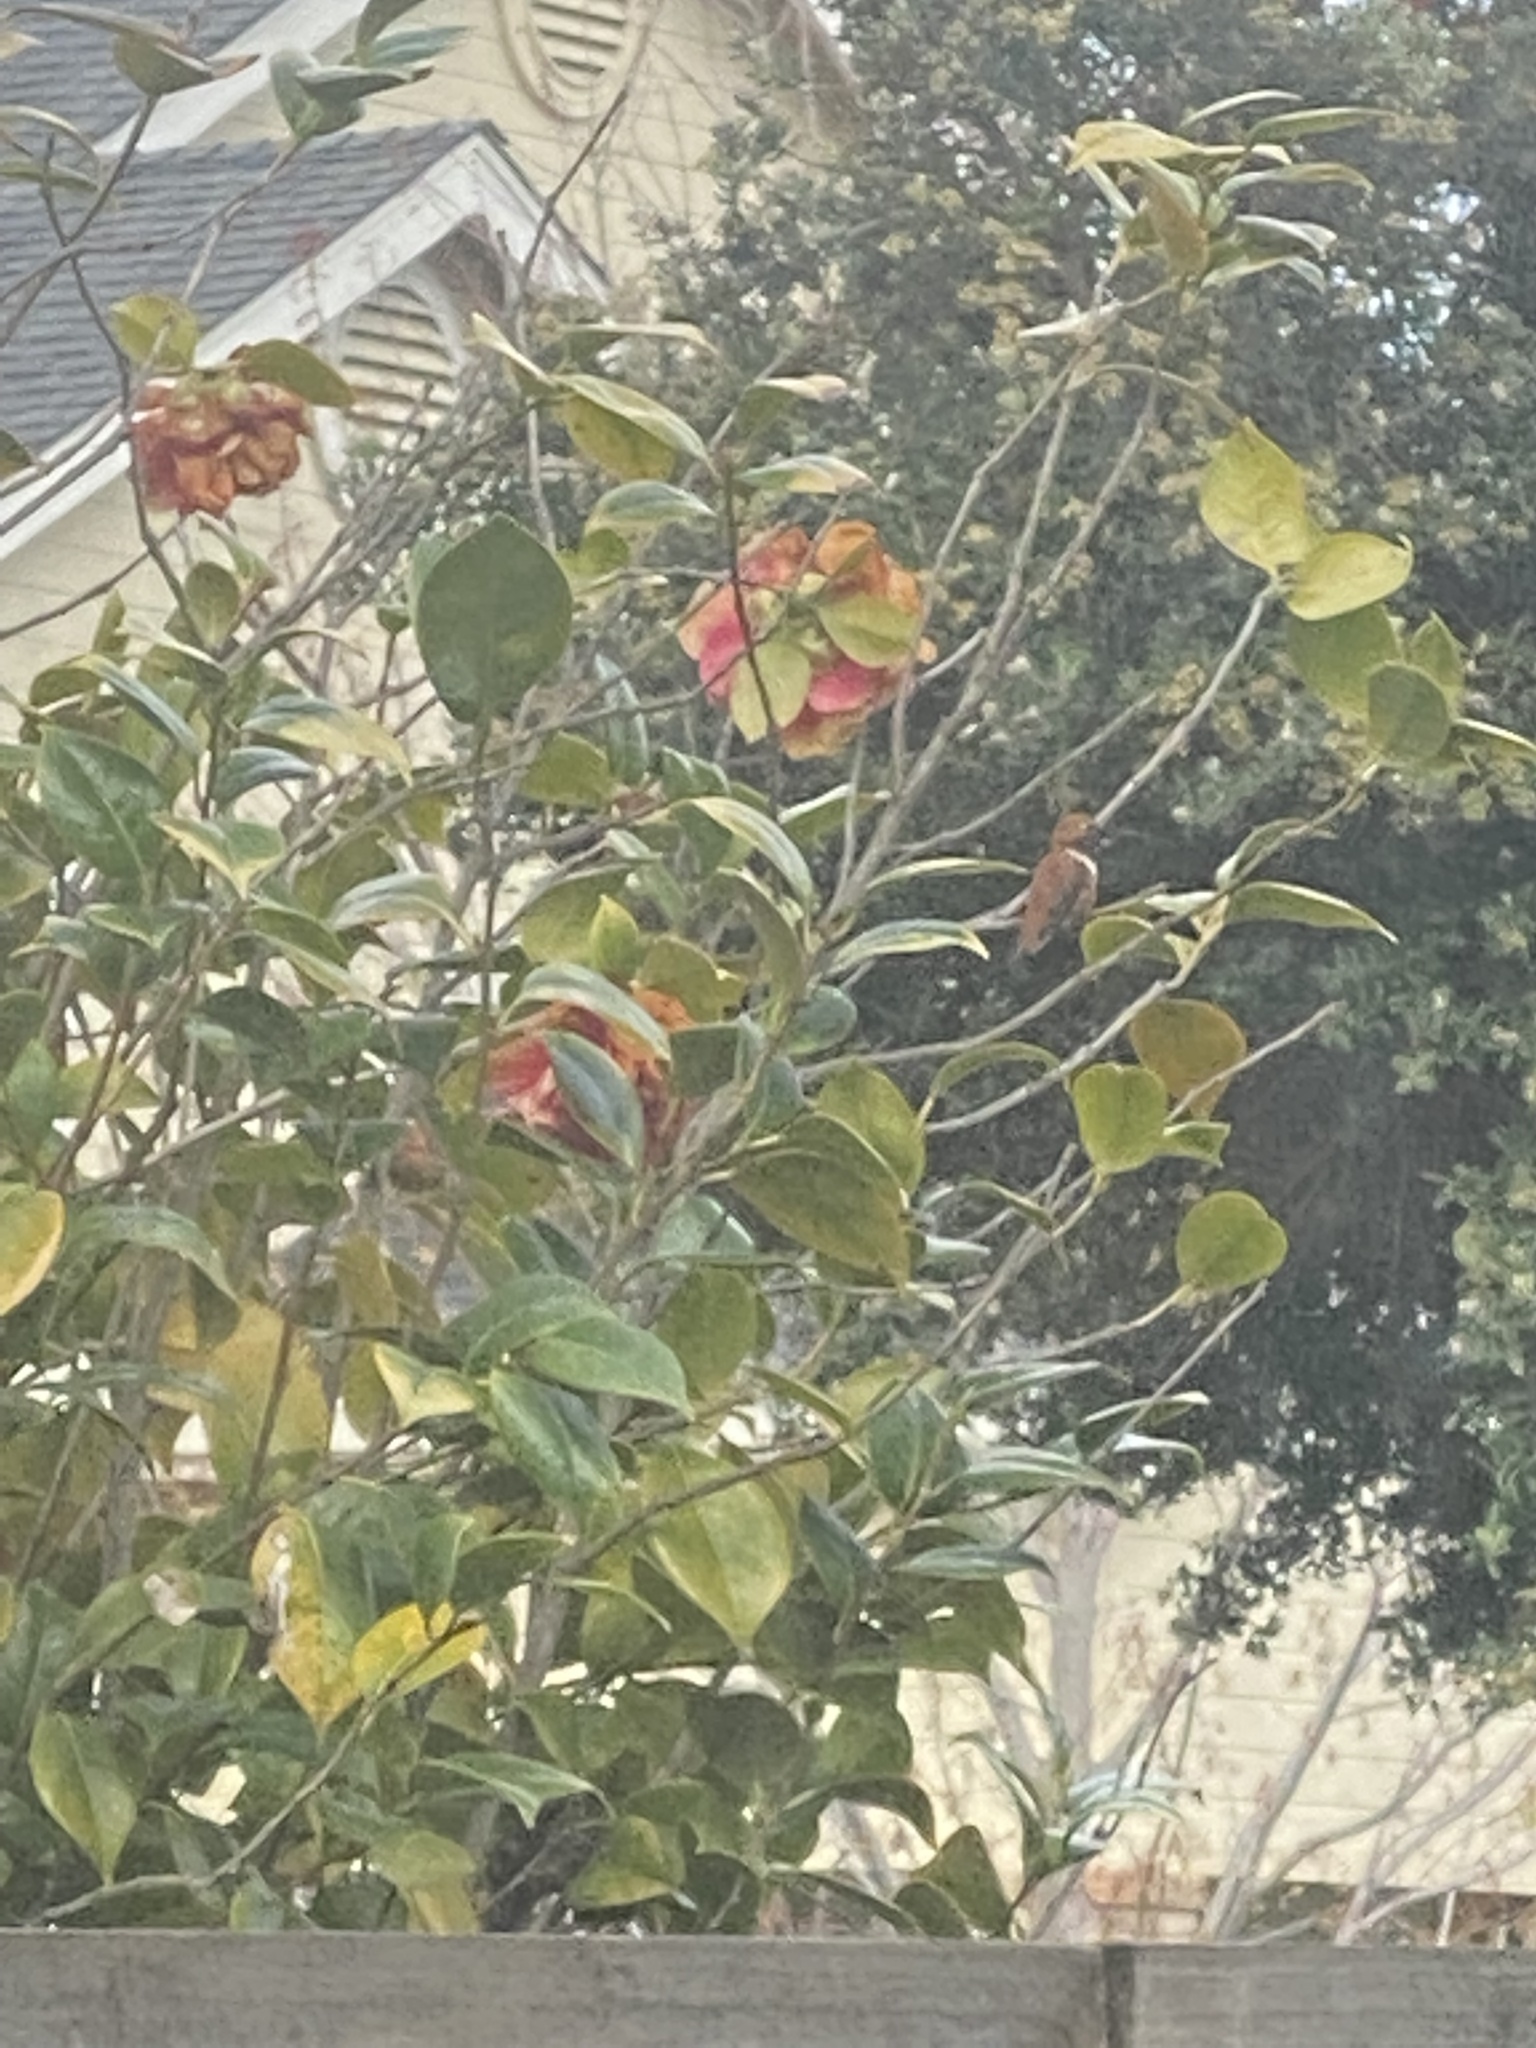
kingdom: Animalia
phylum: Chordata
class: Aves
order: Apodiformes
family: Trochilidae
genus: Selasphorus
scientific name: Selasphorus rufus
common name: Rufous hummingbird
